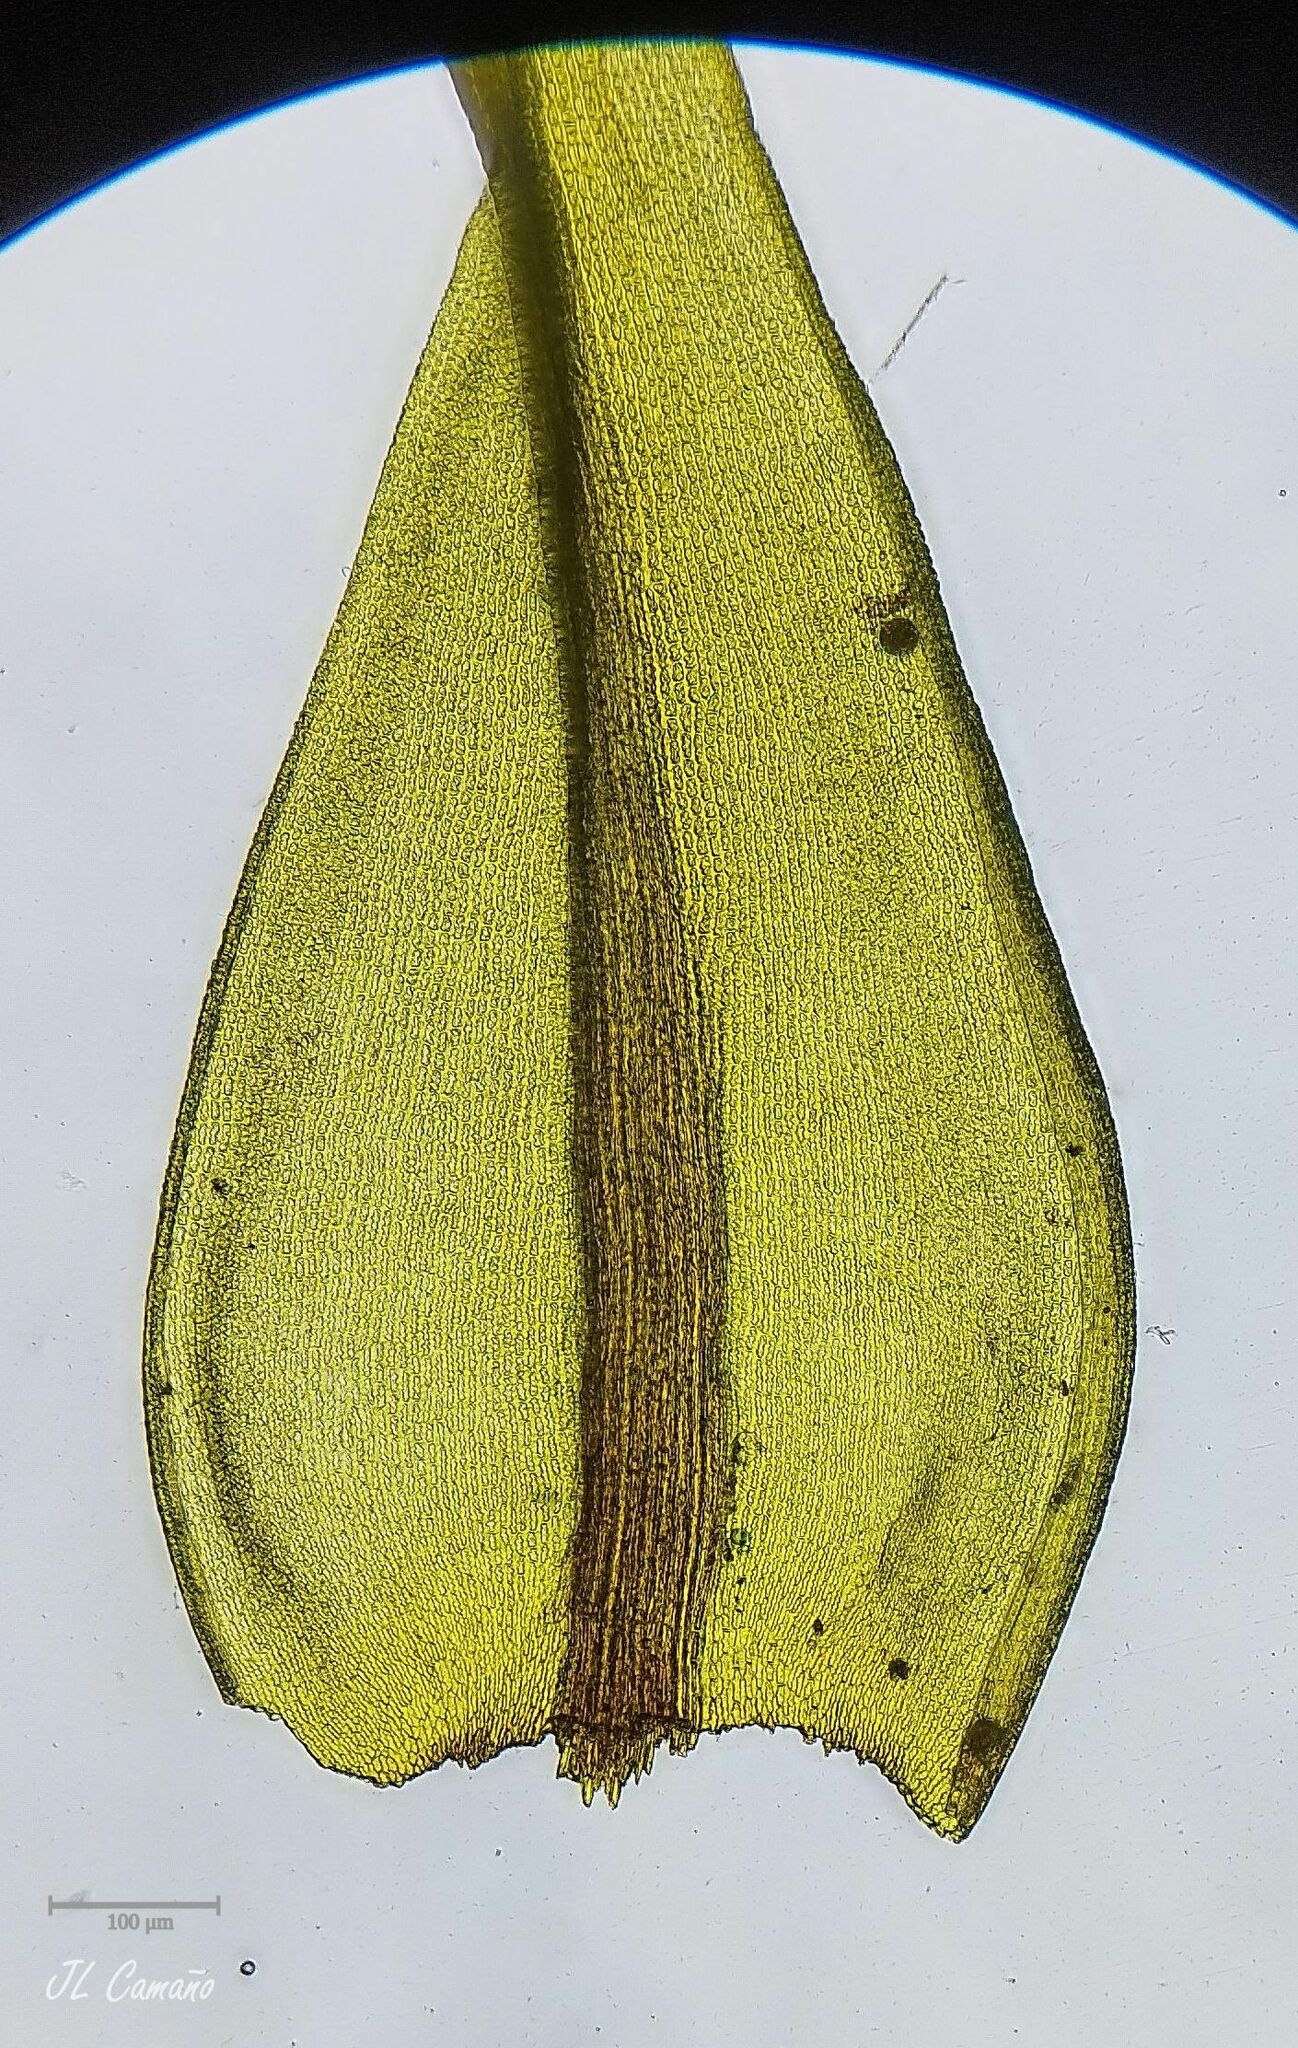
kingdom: Plantae
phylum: Bryophyta
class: Bryopsida
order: Grimmiales
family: Grimmiaceae
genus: Codriophorus
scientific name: Codriophorus aquaticus
